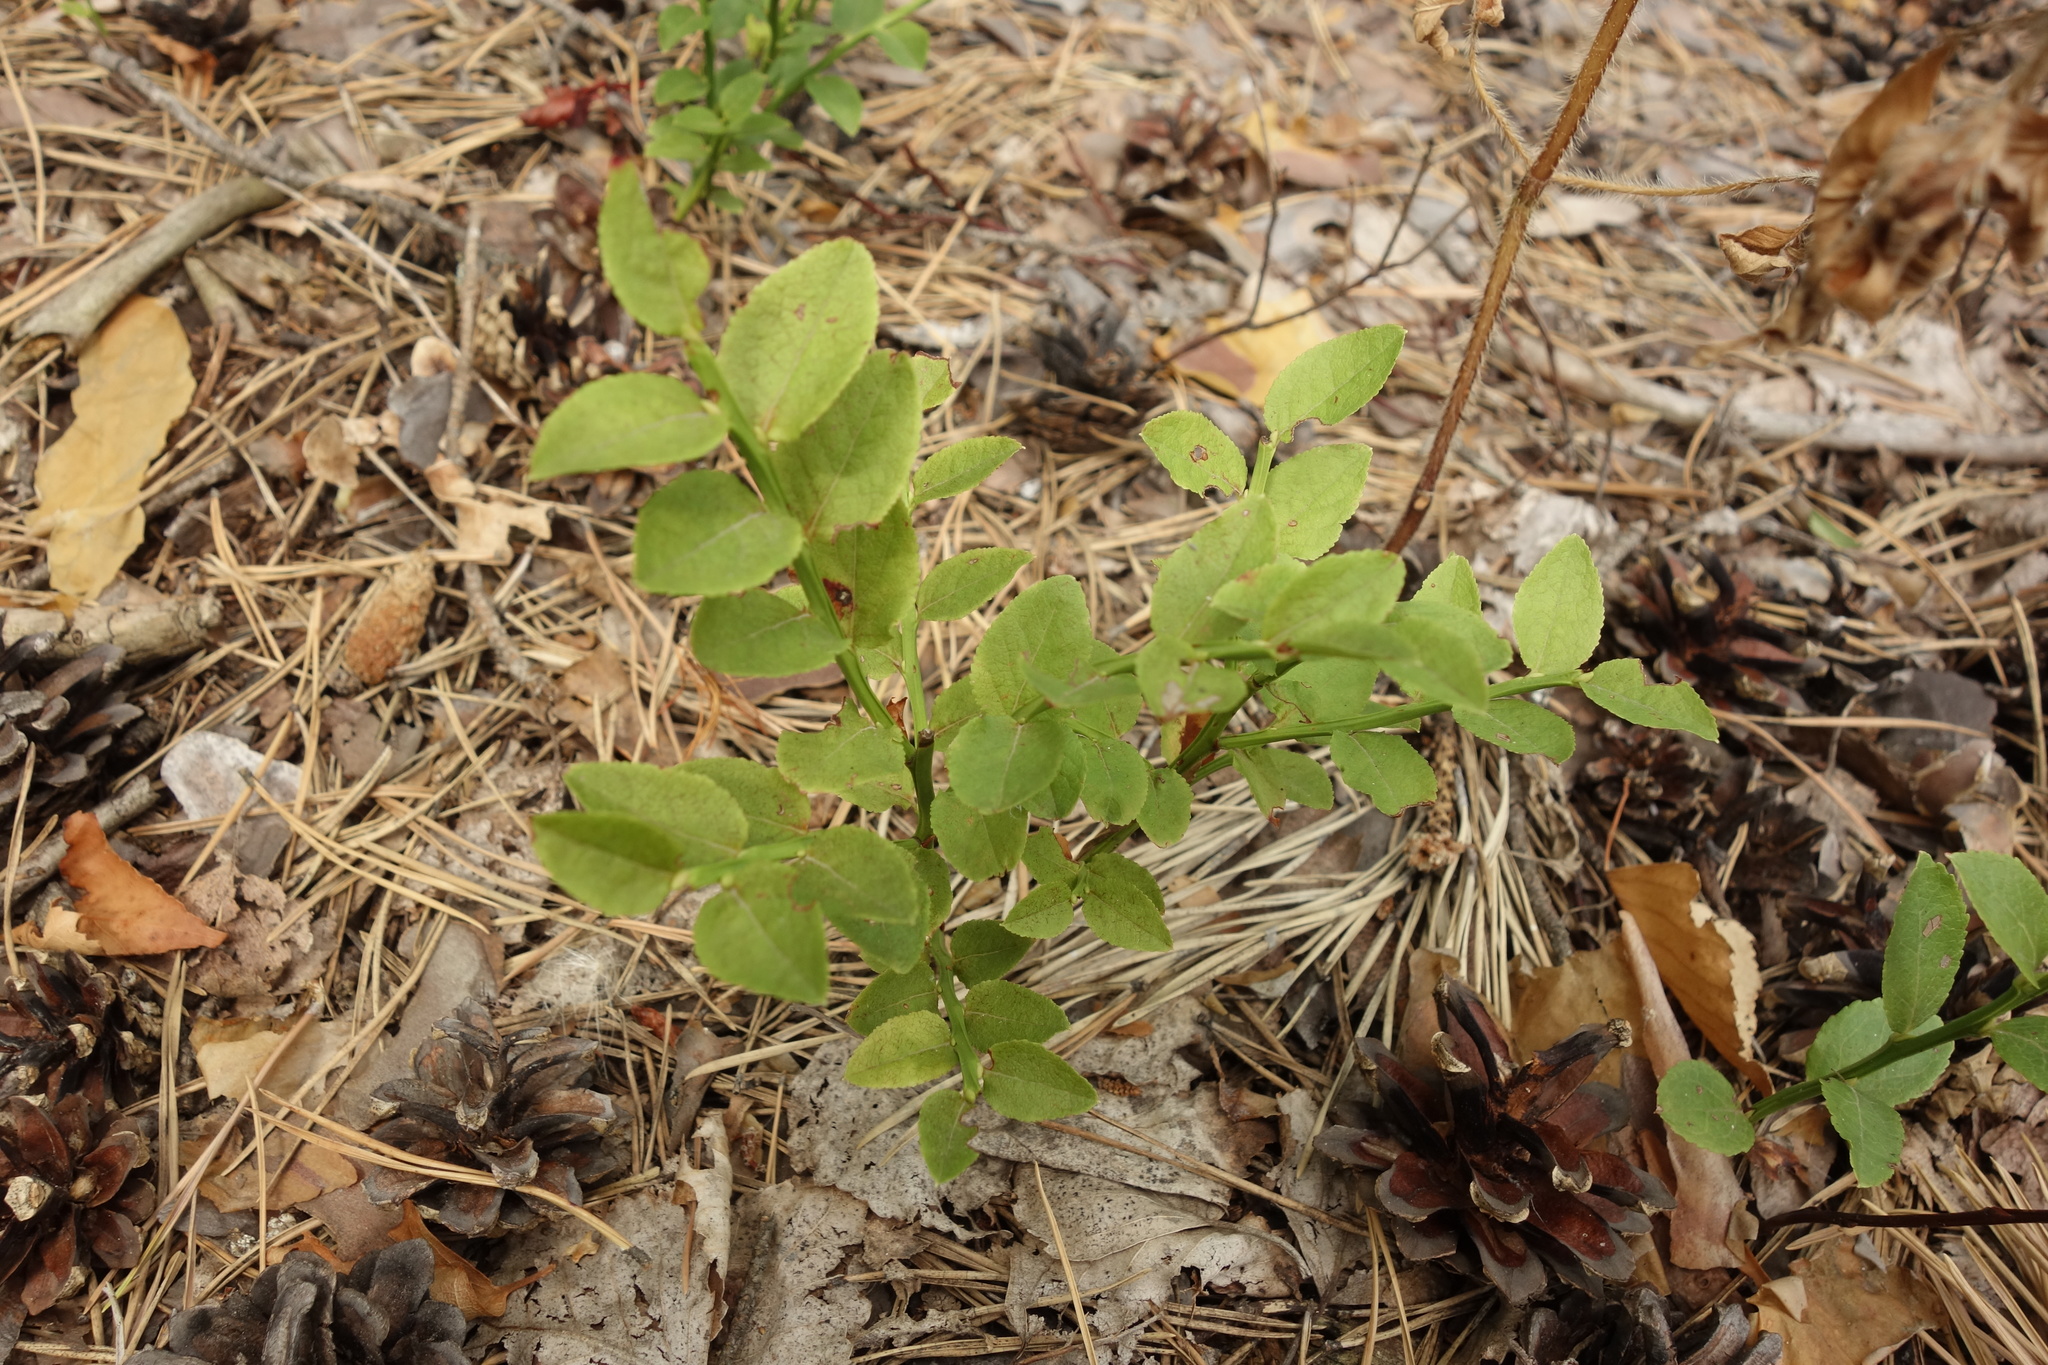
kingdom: Plantae
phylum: Tracheophyta
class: Magnoliopsida
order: Ericales
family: Ericaceae
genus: Vaccinium
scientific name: Vaccinium myrtillus
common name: Bilberry
